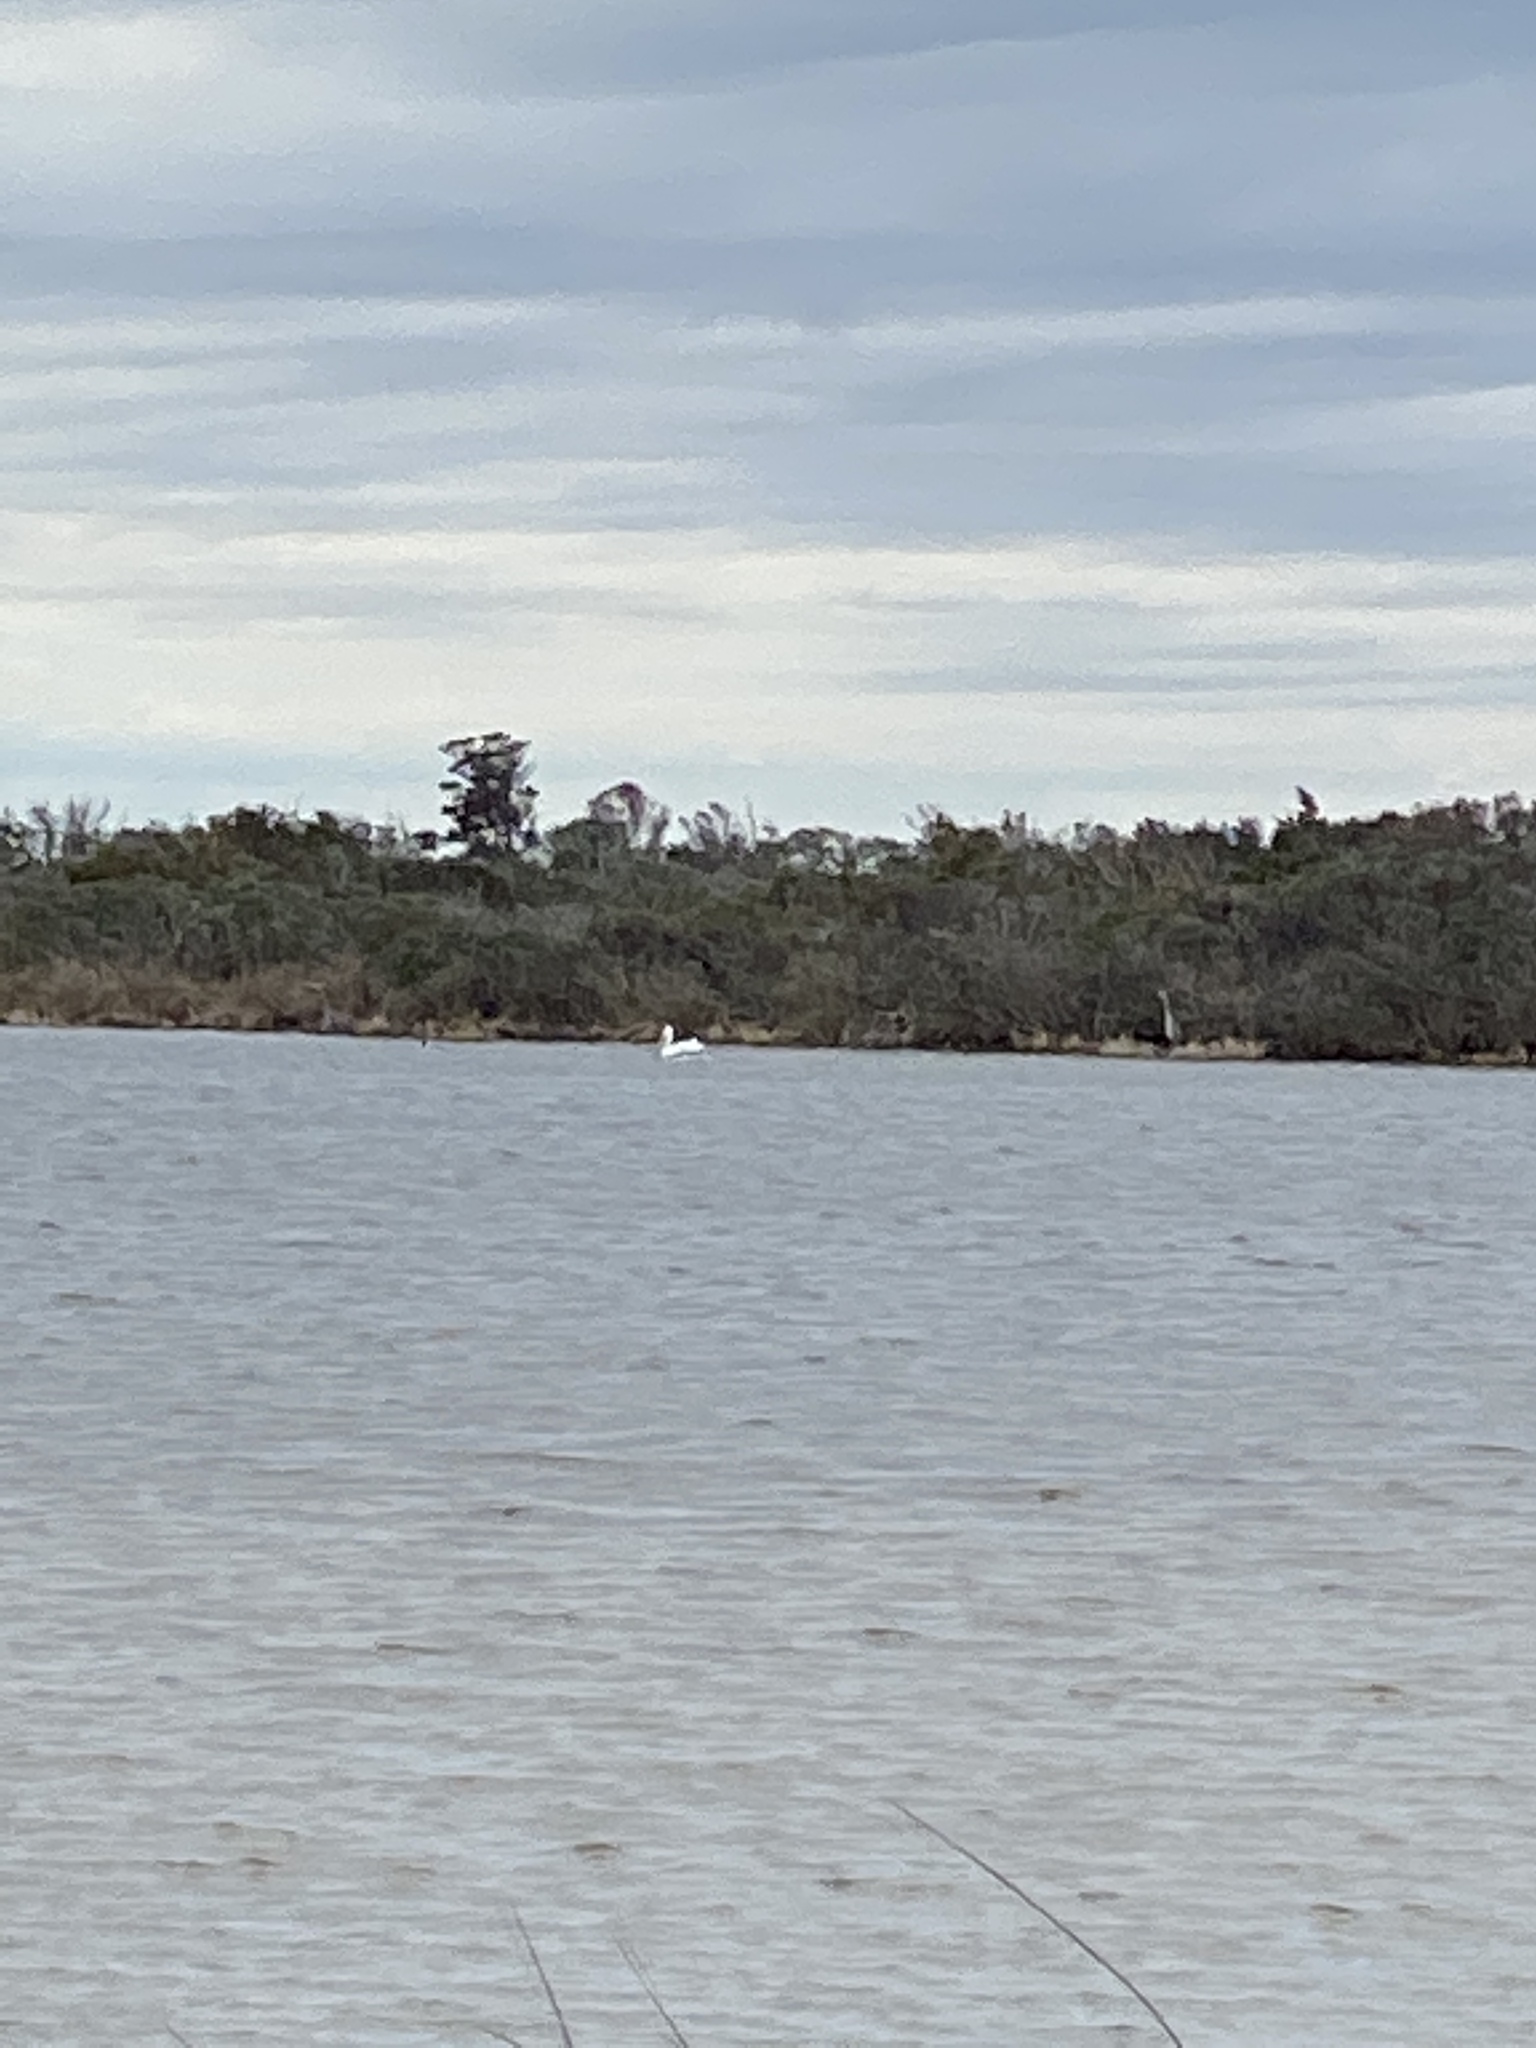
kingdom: Animalia
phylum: Chordata
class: Aves
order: Pelecaniformes
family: Pelecanidae
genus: Pelecanus
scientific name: Pelecanus erythrorhynchos
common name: American white pelican
